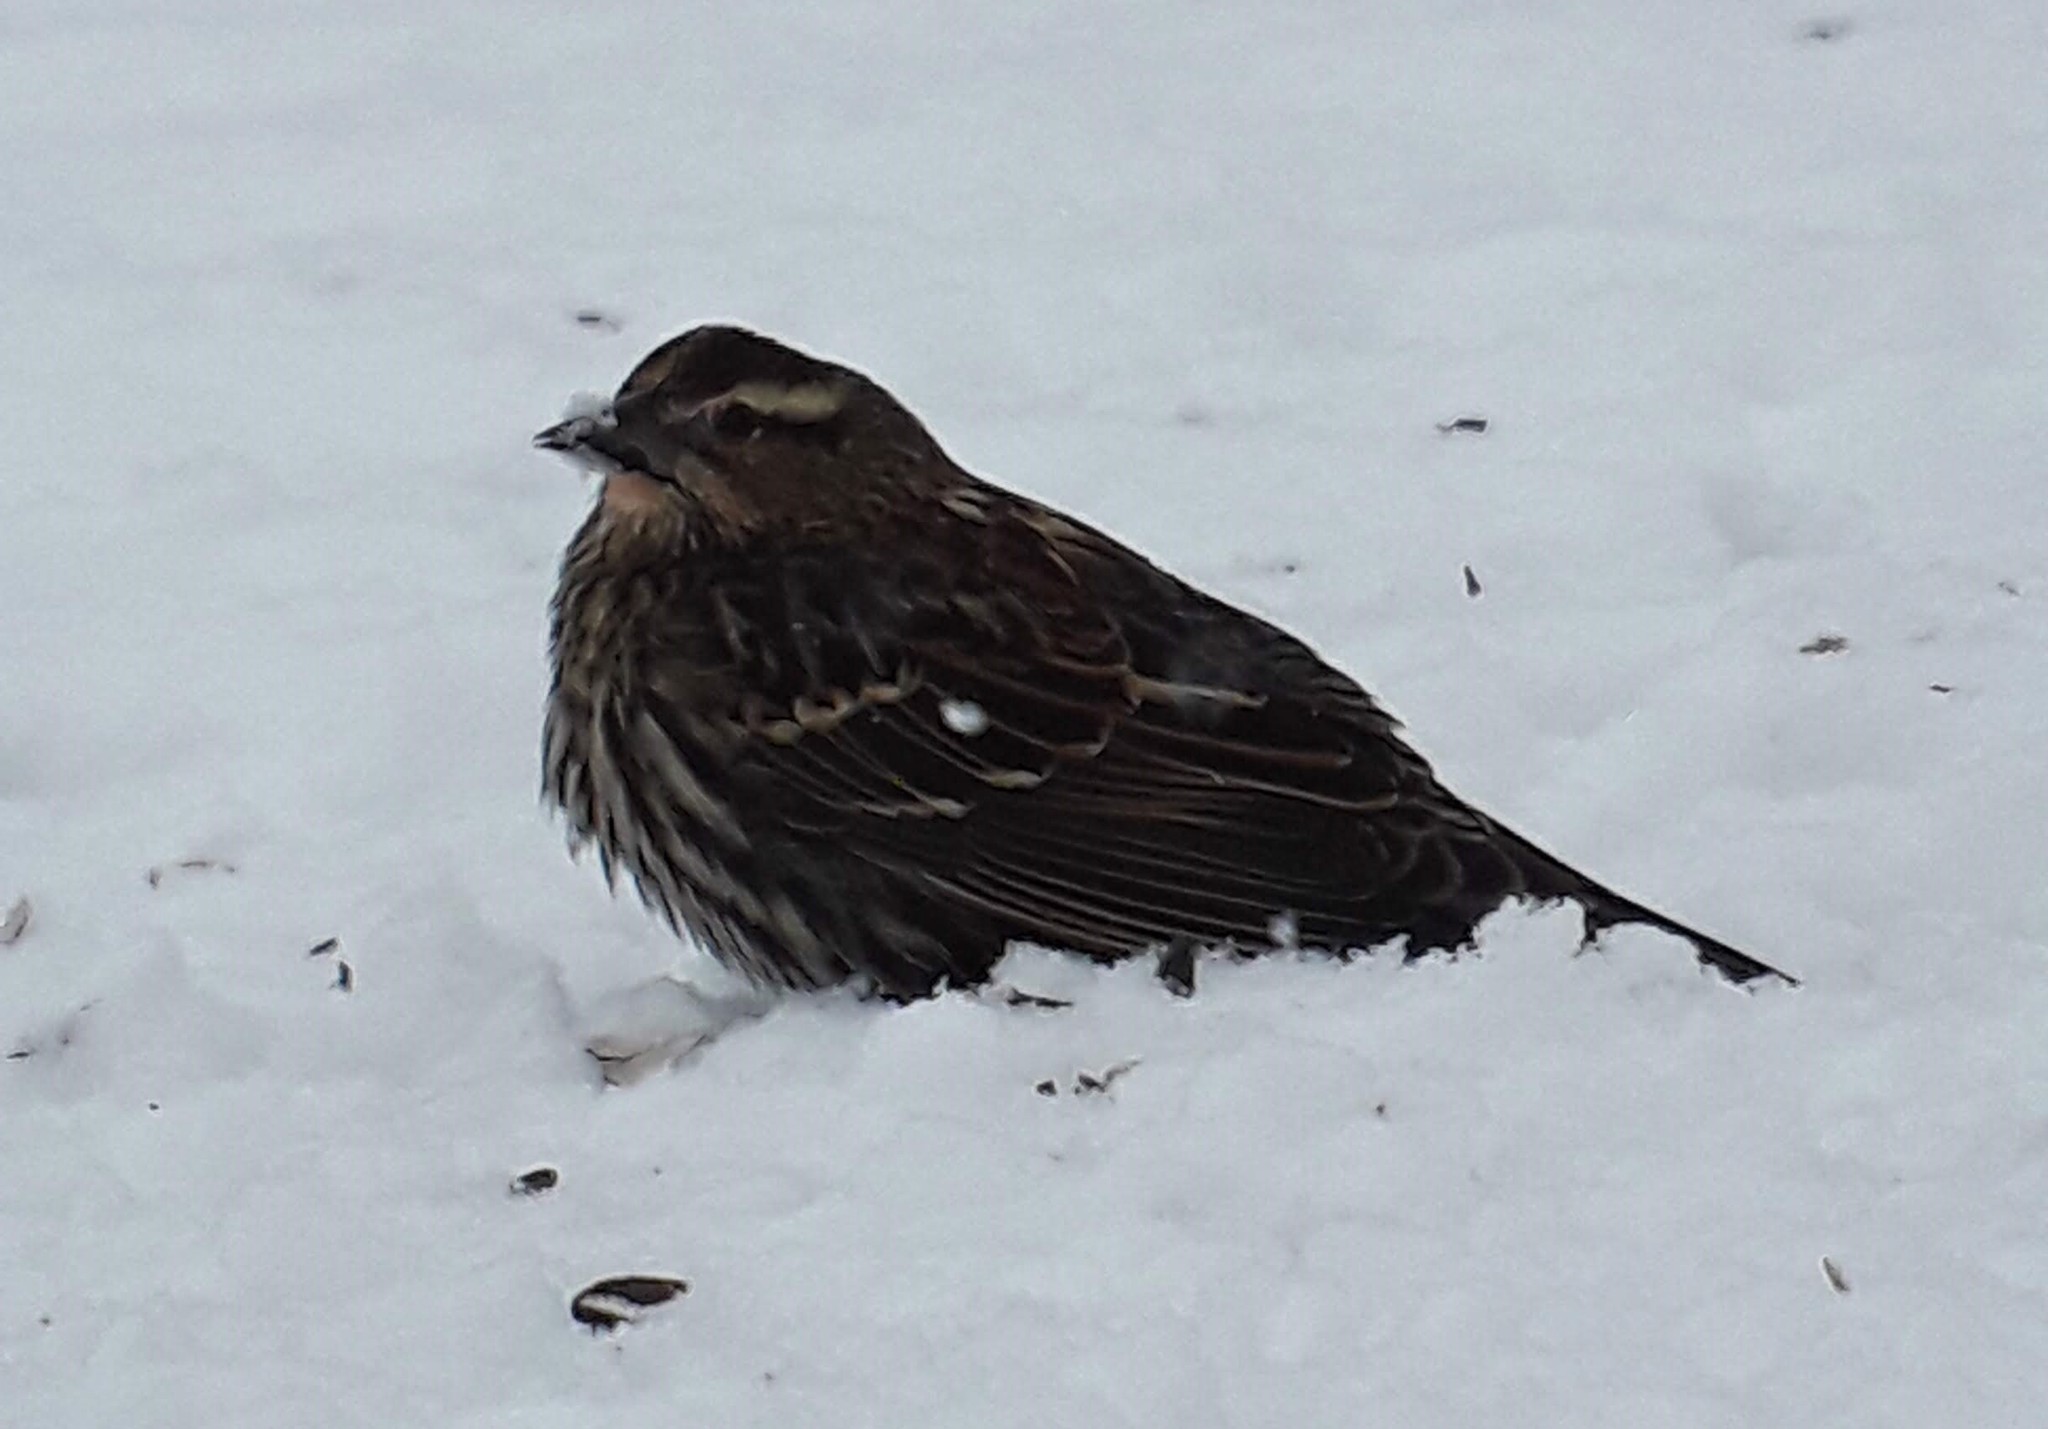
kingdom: Animalia
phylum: Chordata
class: Aves
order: Passeriformes
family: Icteridae
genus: Agelaius
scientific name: Agelaius phoeniceus
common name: Red-winged blackbird
